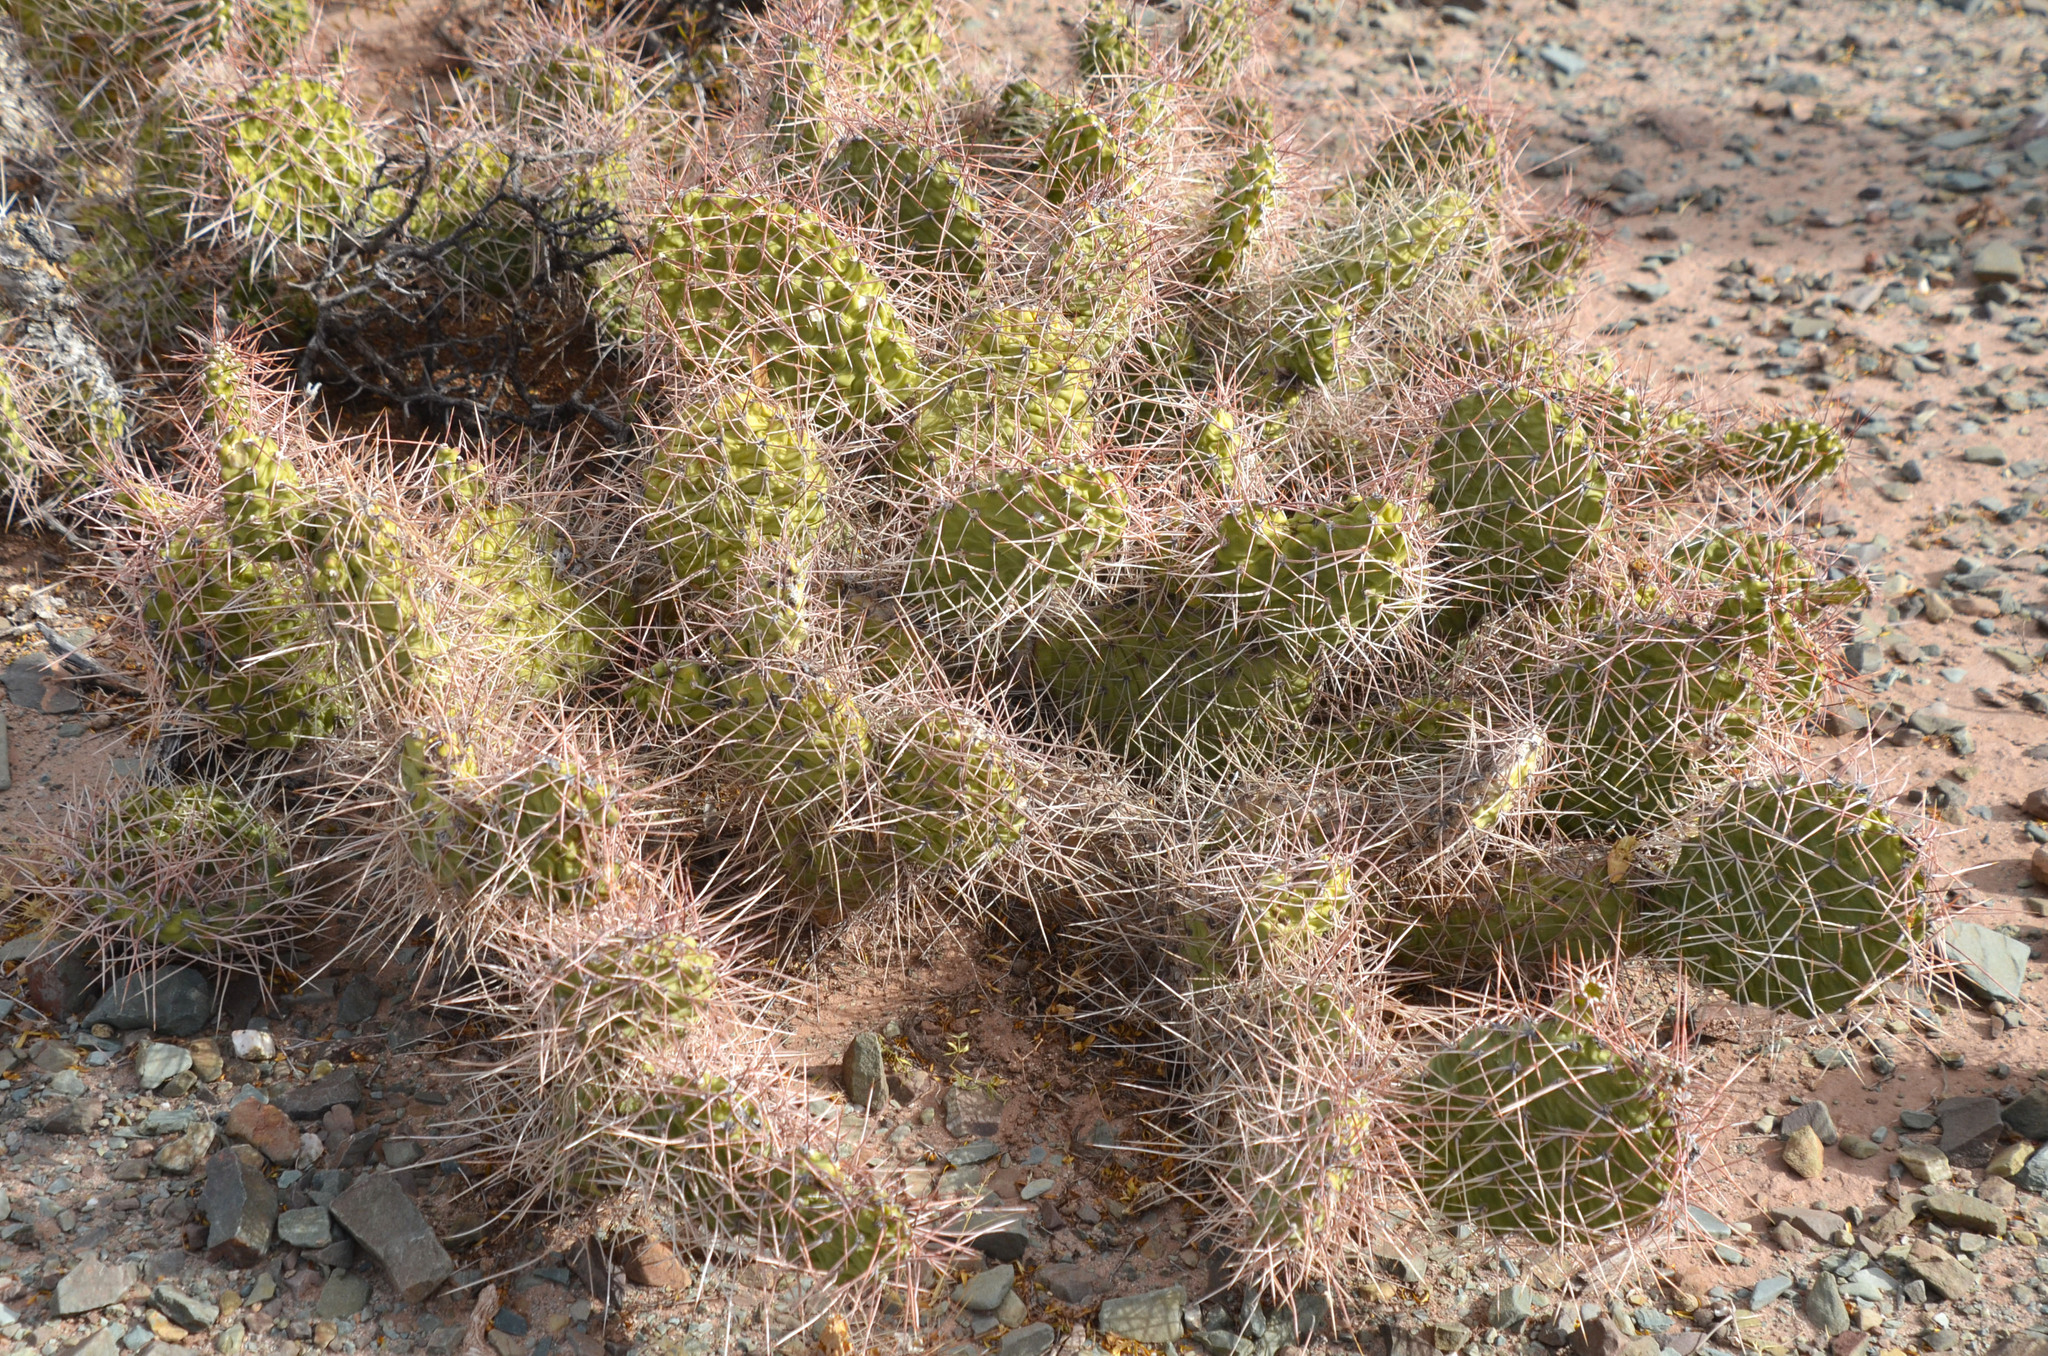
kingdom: Plantae
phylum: Tracheophyta
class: Magnoliopsida
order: Caryophyllales
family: Cactaceae
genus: Opuntia
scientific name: Opuntia sulphurea
